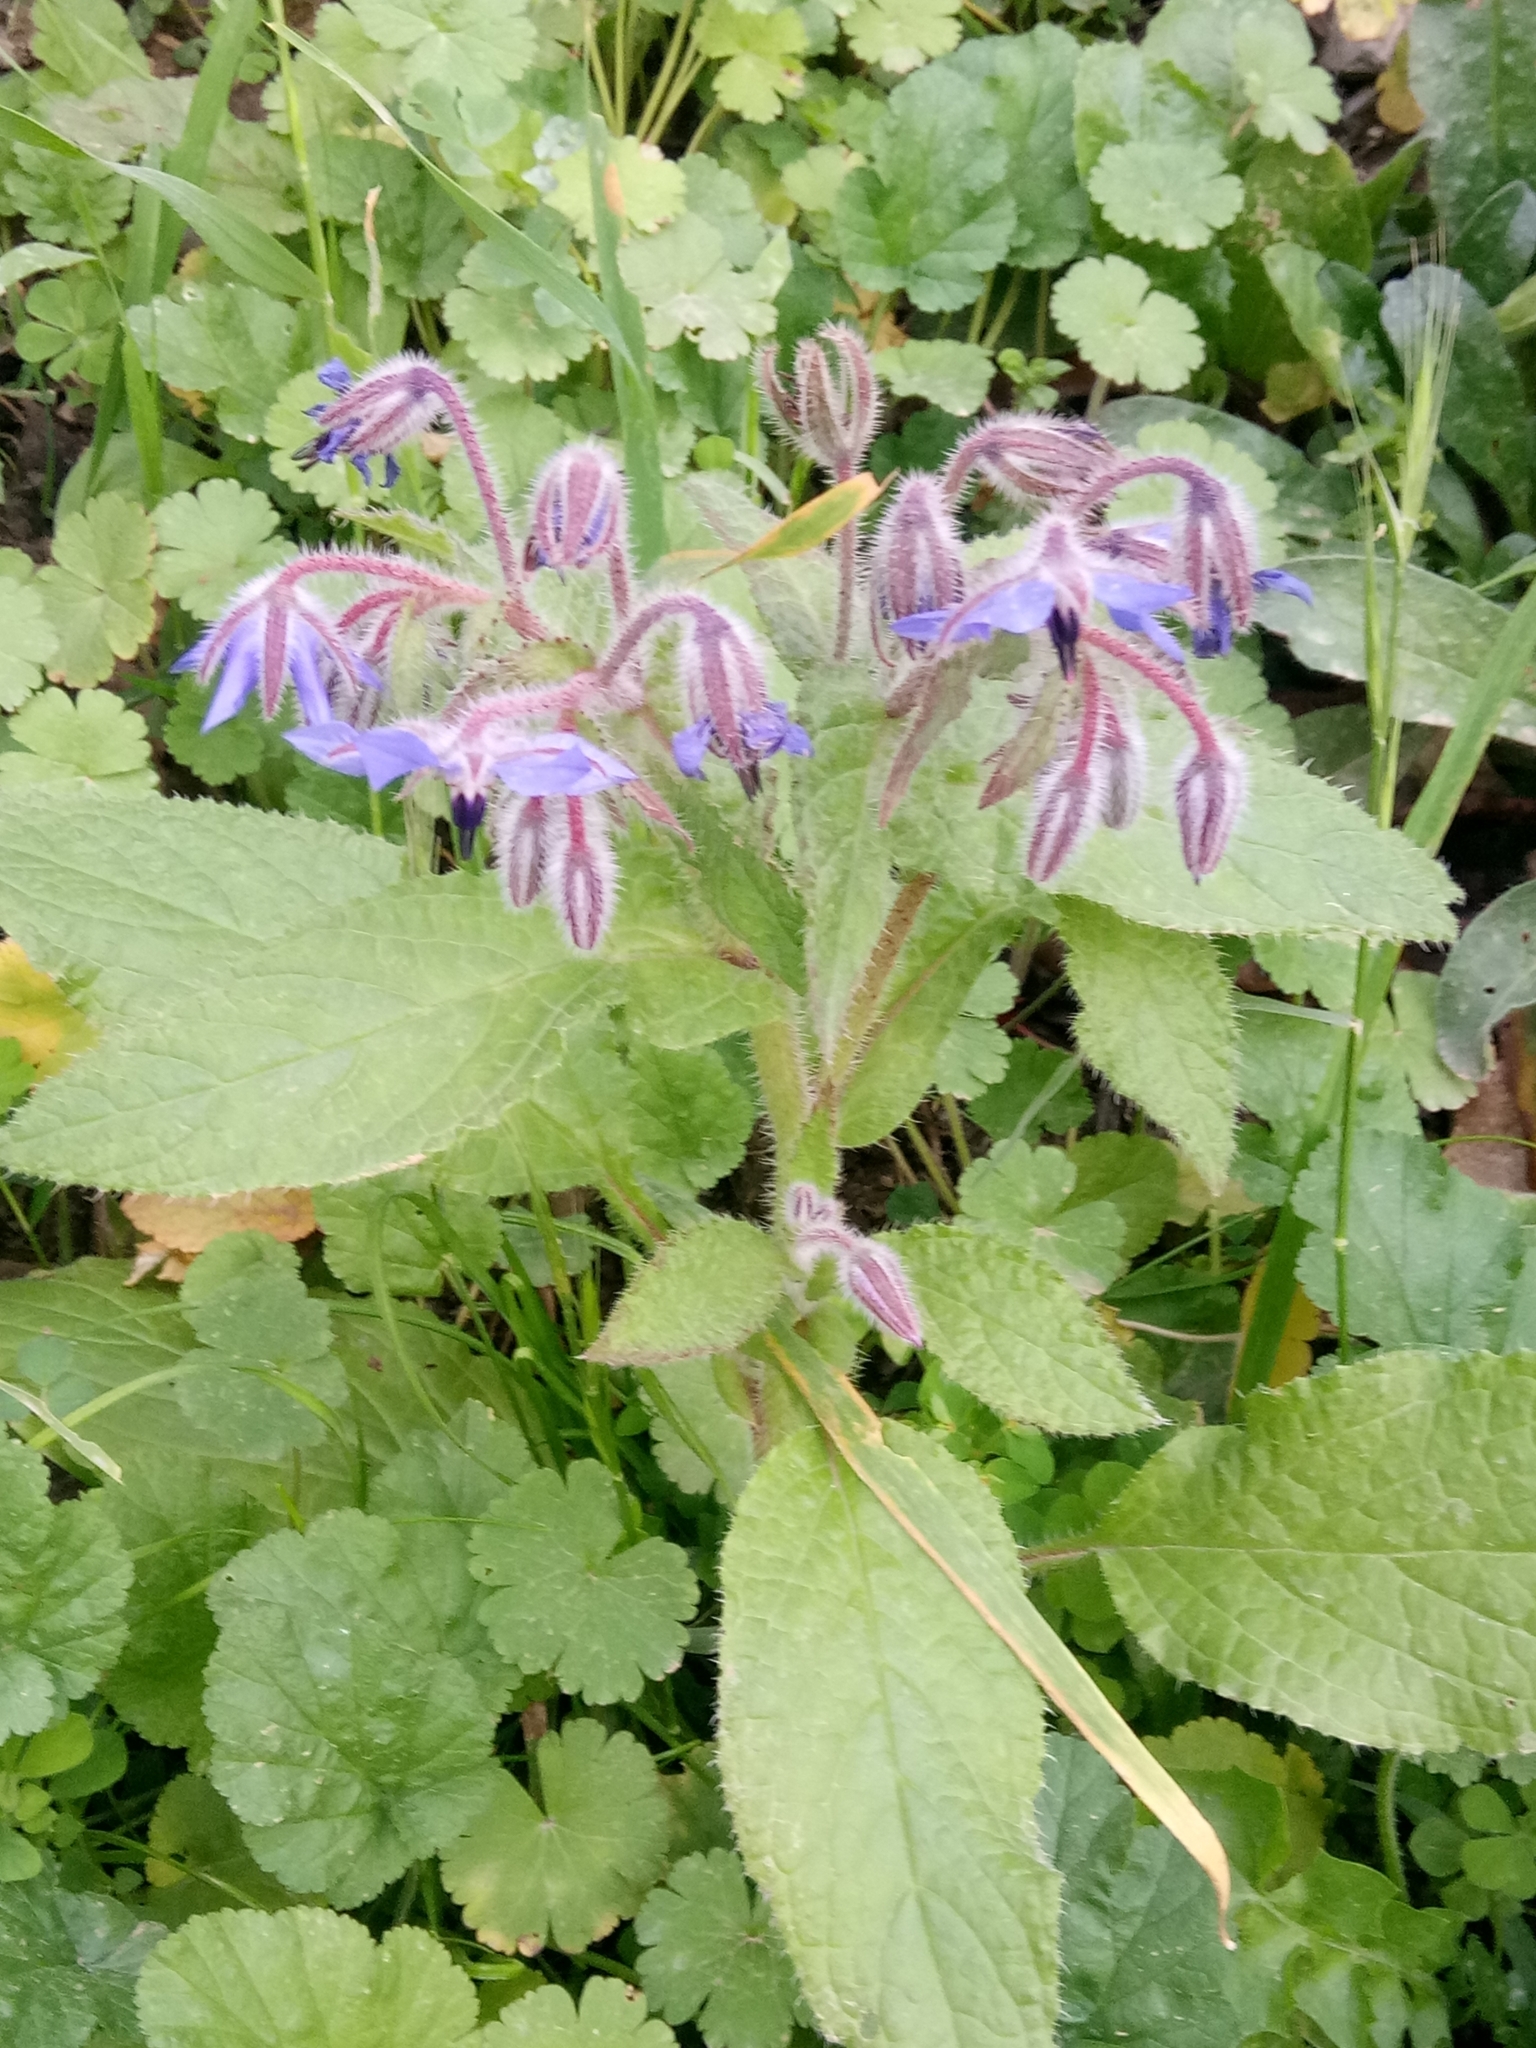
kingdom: Plantae
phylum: Tracheophyta
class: Magnoliopsida
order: Boraginales
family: Boraginaceae
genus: Borago
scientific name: Borago officinalis
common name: Borage
